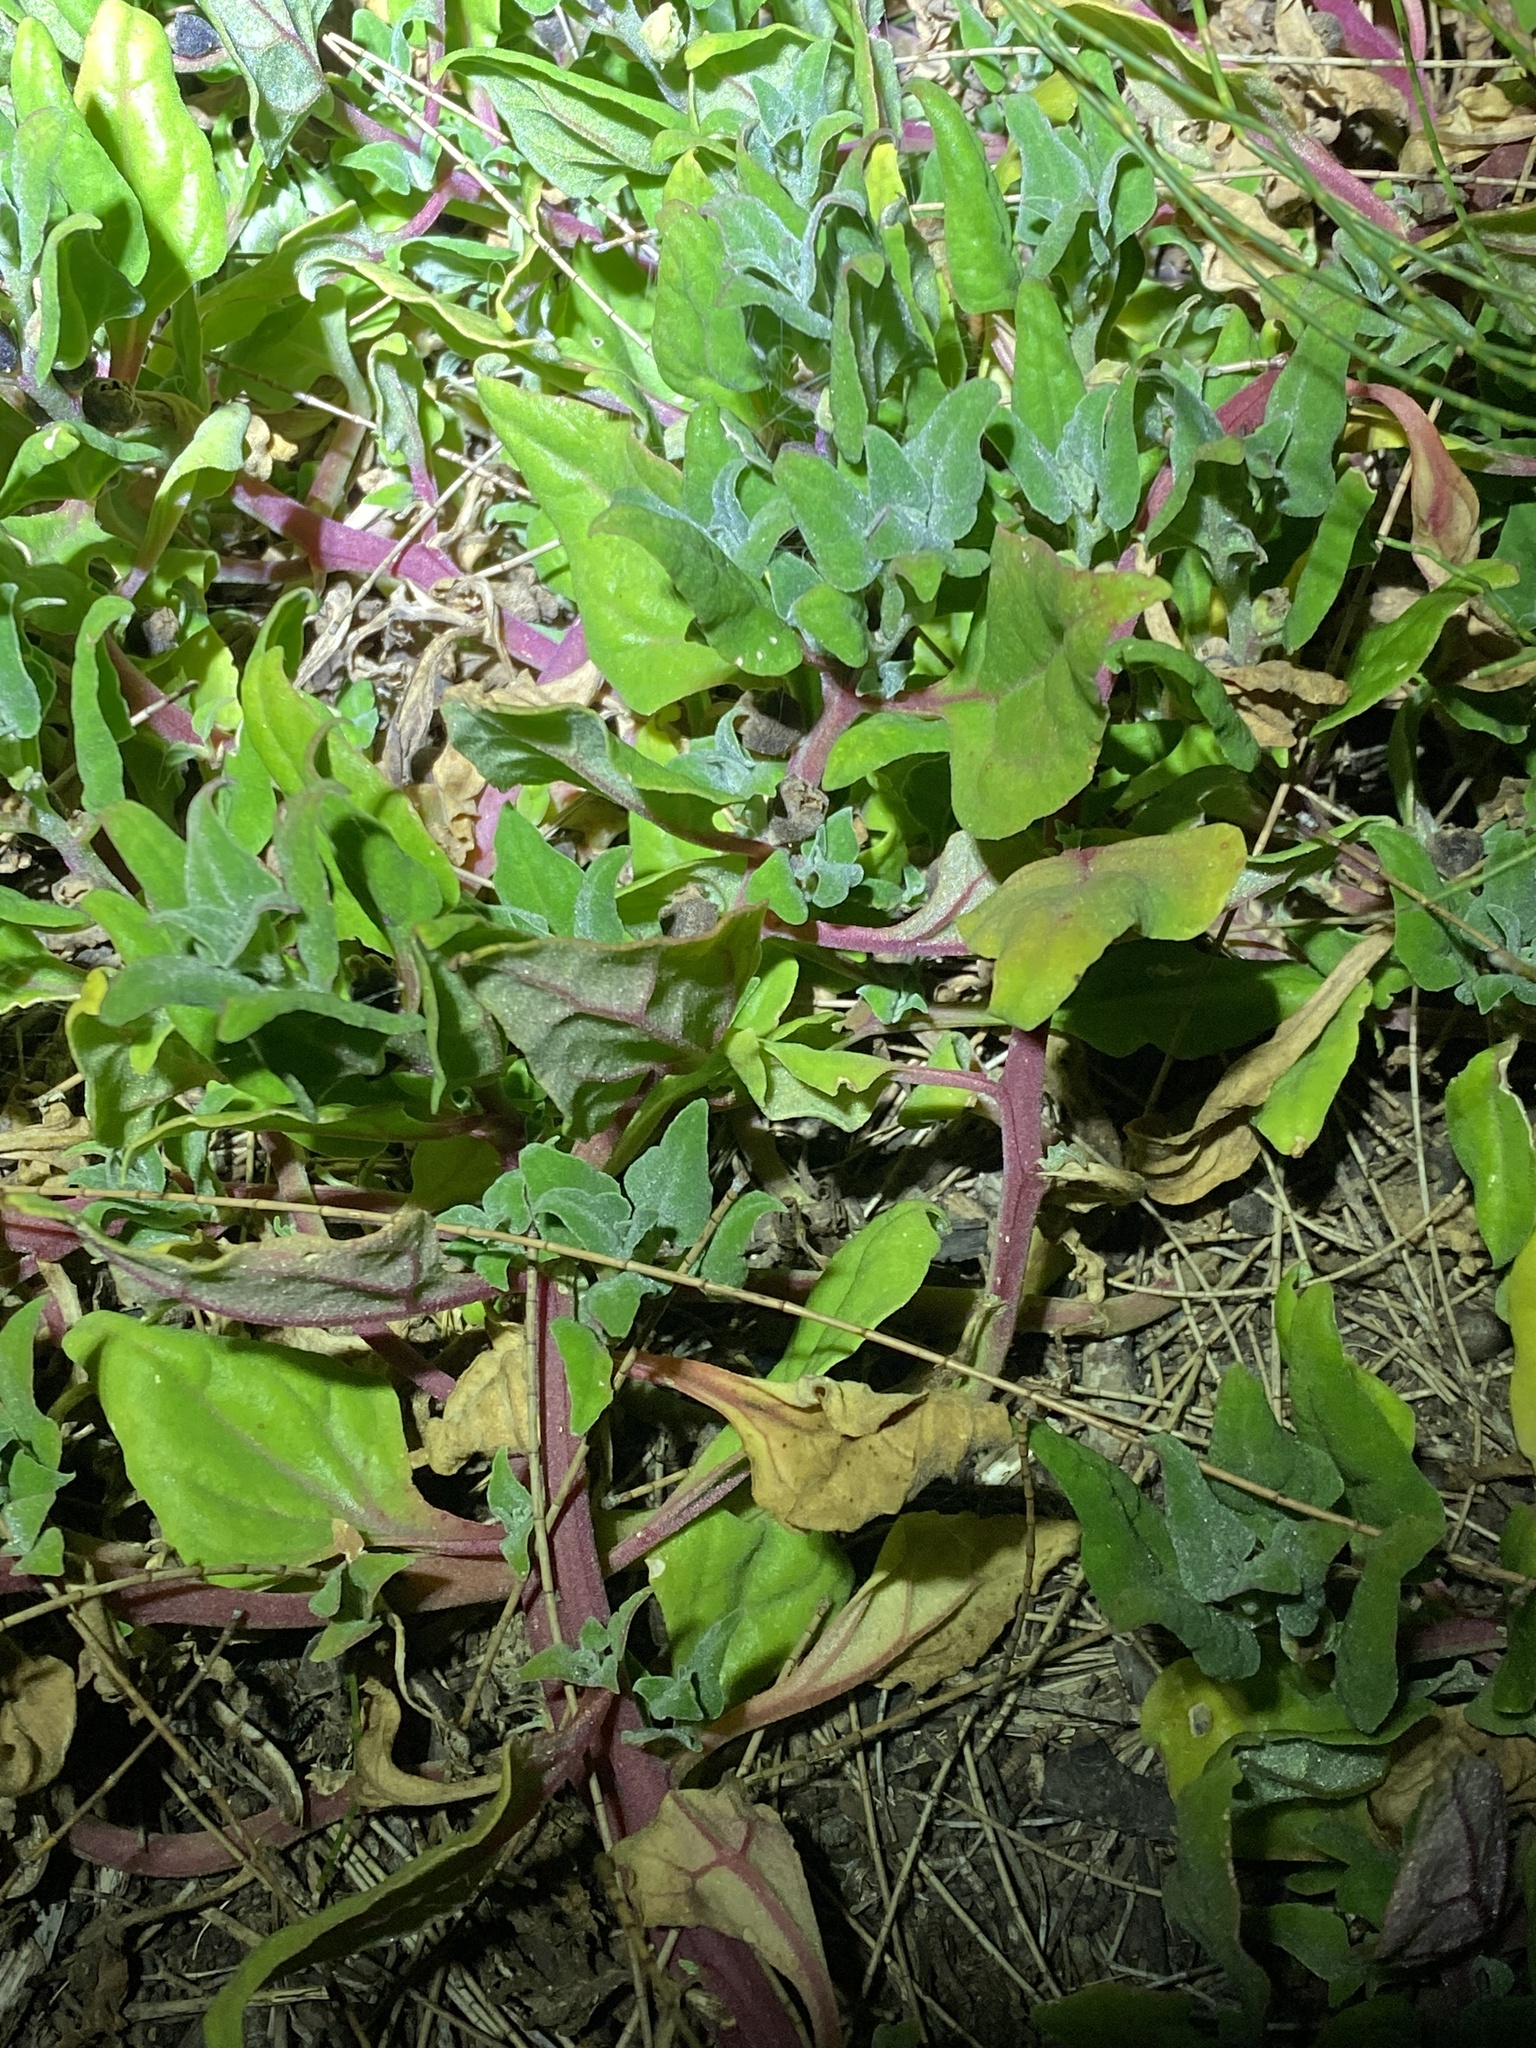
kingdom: Plantae
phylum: Tracheophyta
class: Magnoliopsida
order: Caryophyllales
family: Aizoaceae
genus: Tetragonia
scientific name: Tetragonia tetragonoides
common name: New zealand-spinach
